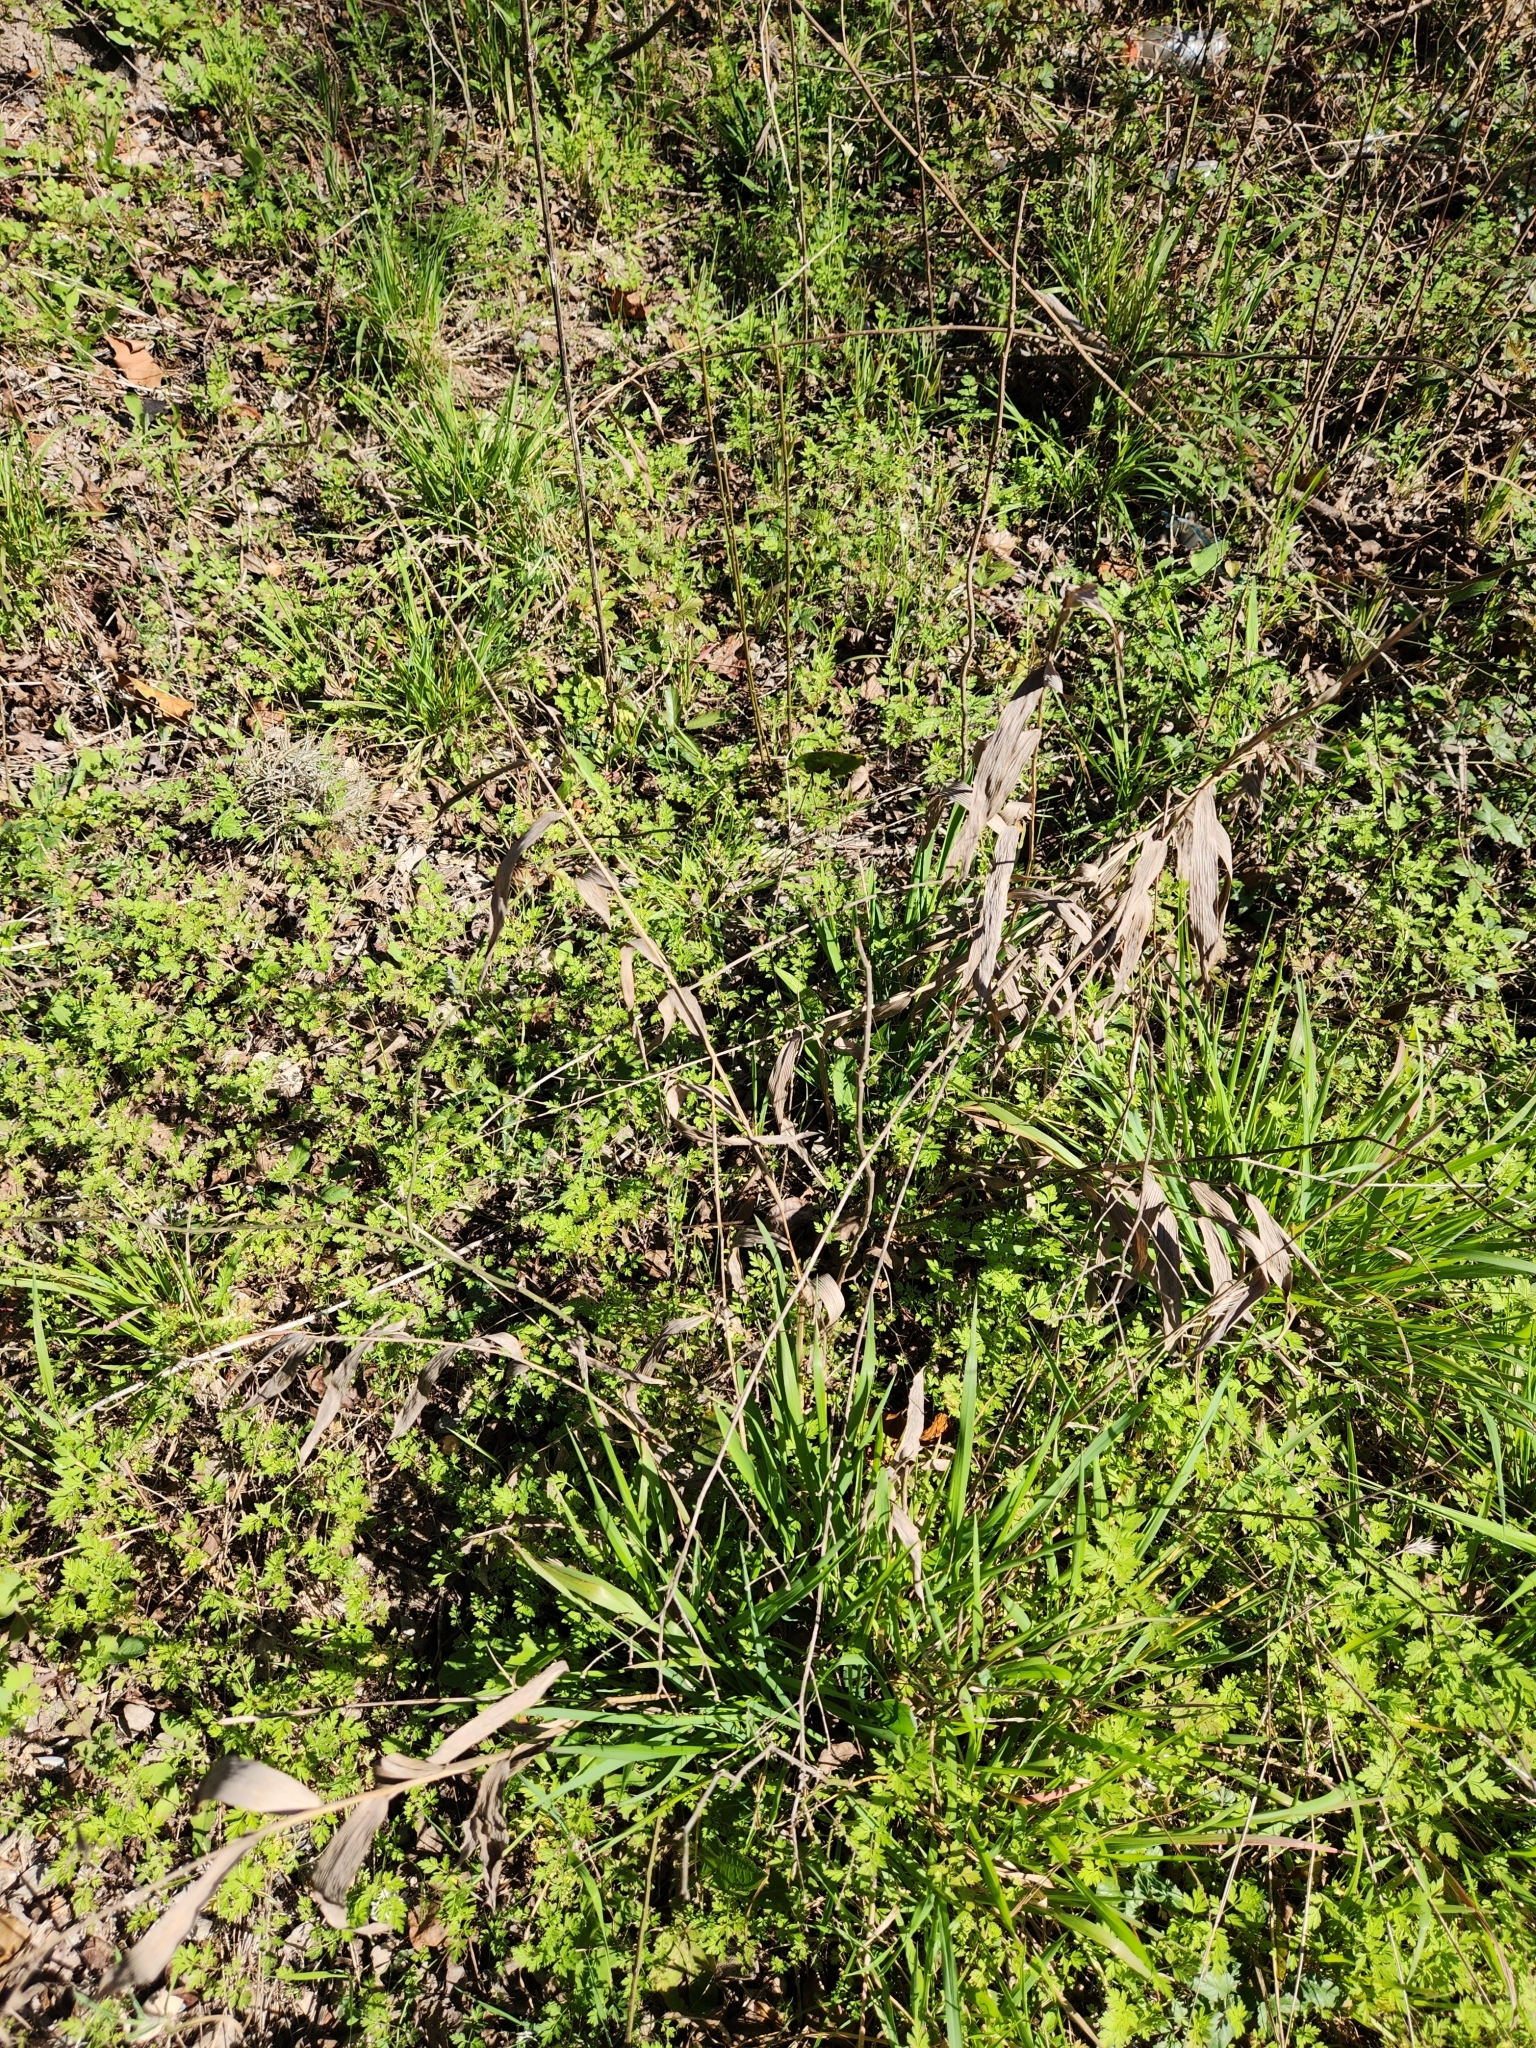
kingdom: Plantae
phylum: Tracheophyta
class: Liliopsida
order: Poales
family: Poaceae
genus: Chasmanthium
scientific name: Chasmanthium latifolium
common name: Broad-leaved chasmanthium
